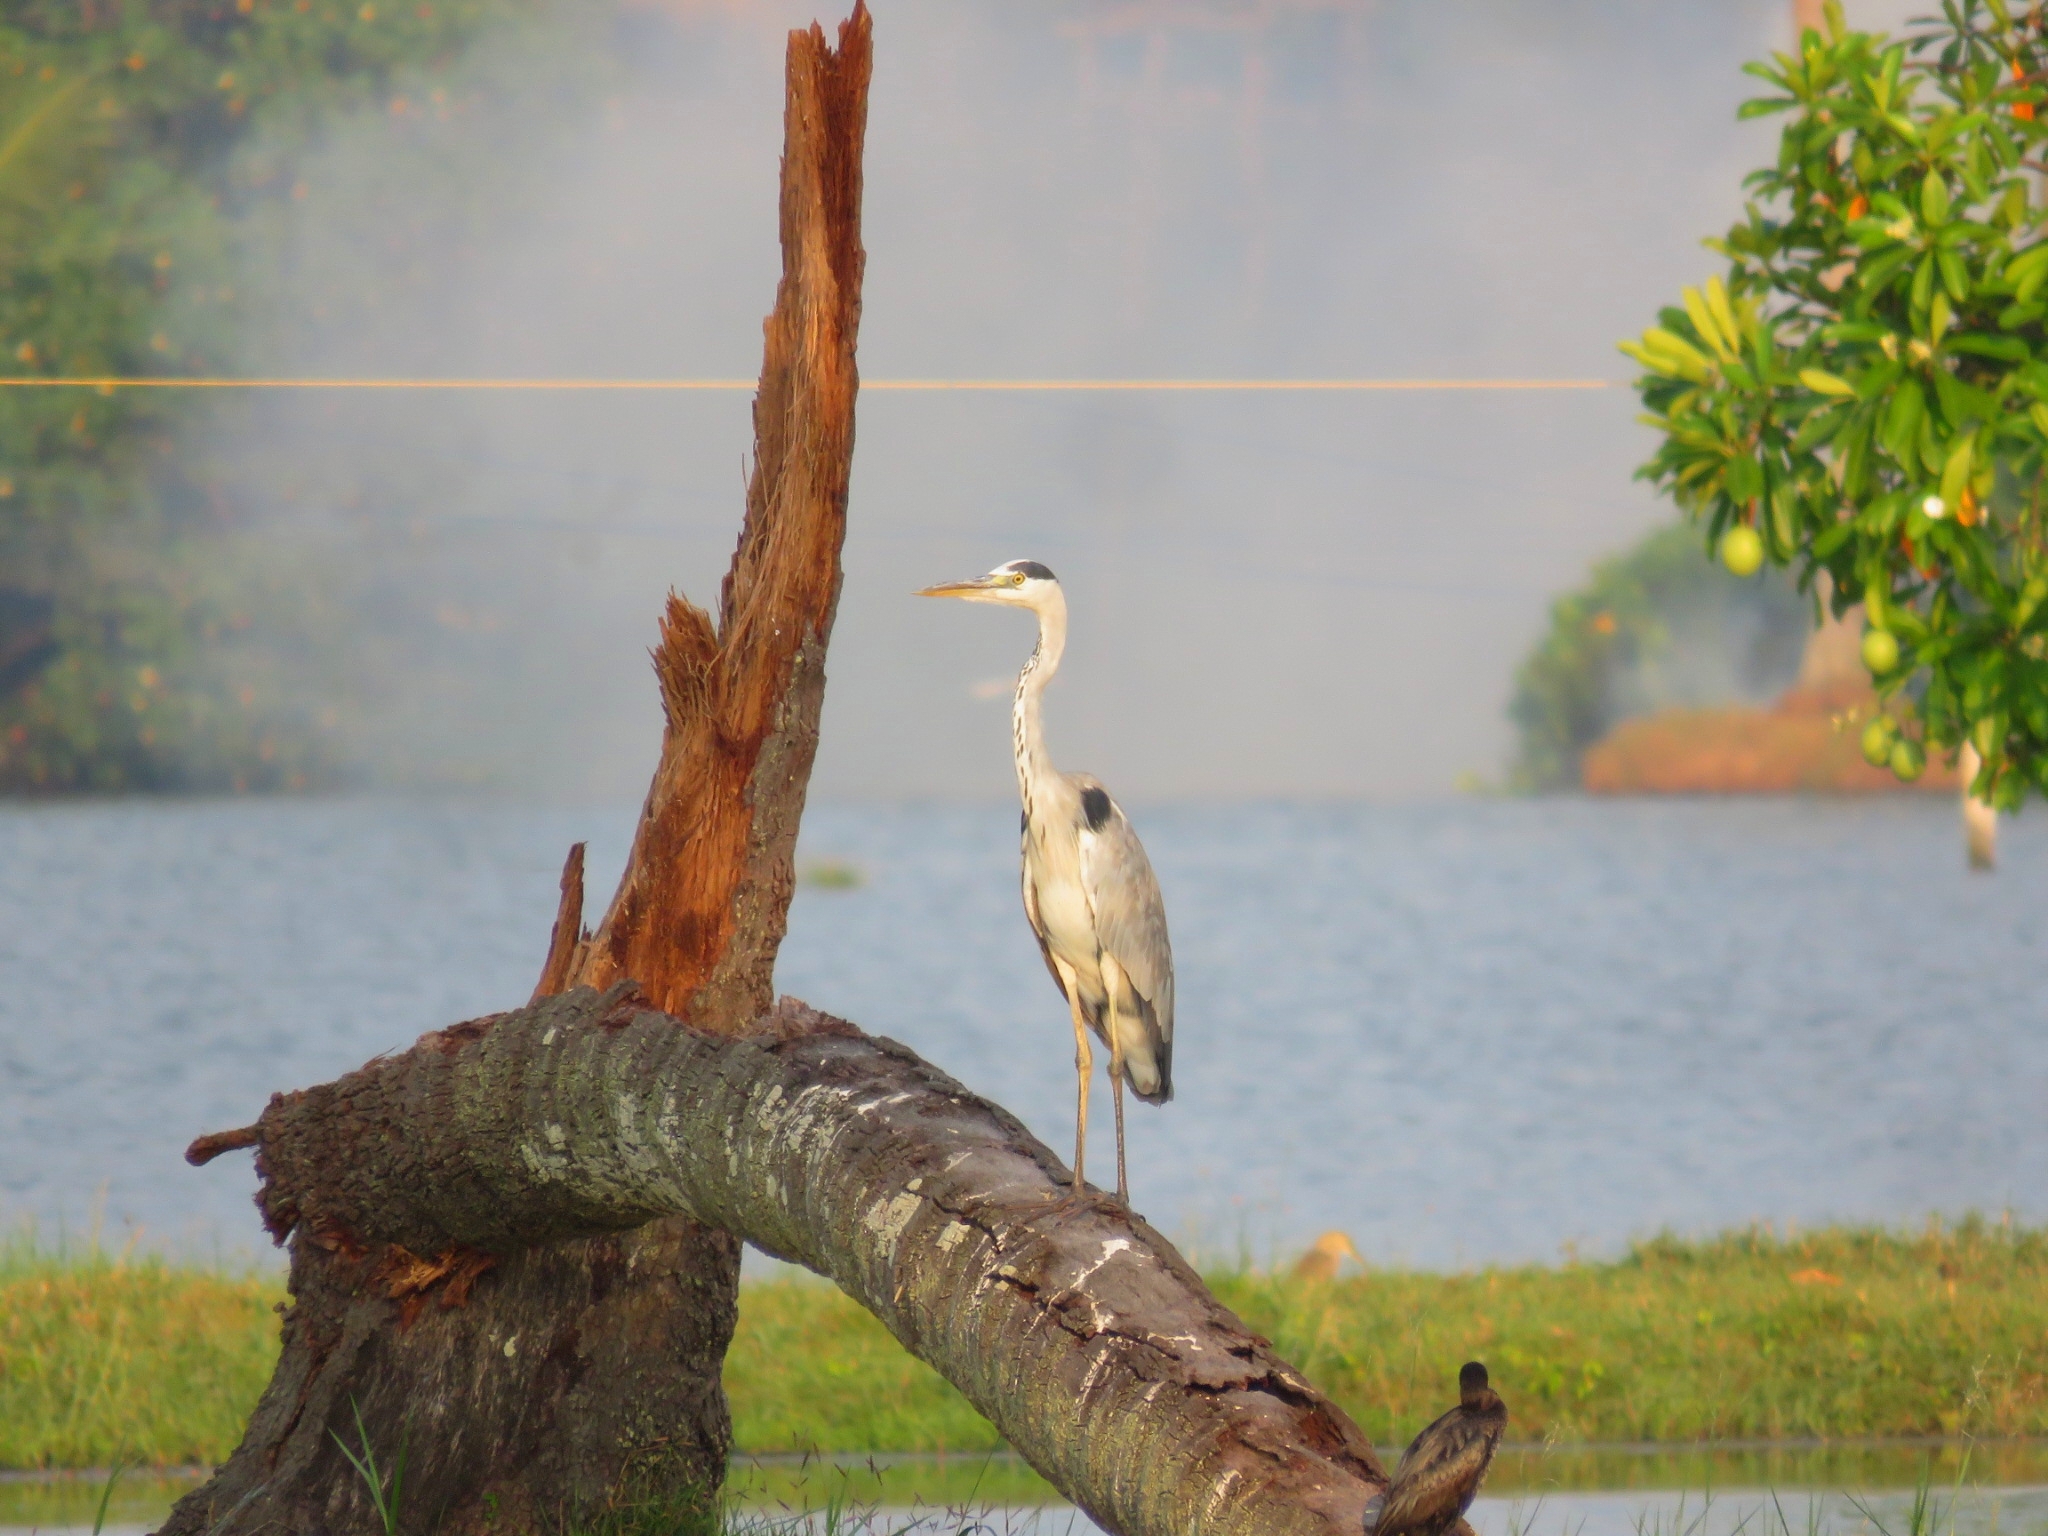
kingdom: Animalia
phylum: Chordata
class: Aves
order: Pelecaniformes
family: Ardeidae
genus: Ardea
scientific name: Ardea cinerea
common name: Grey heron
